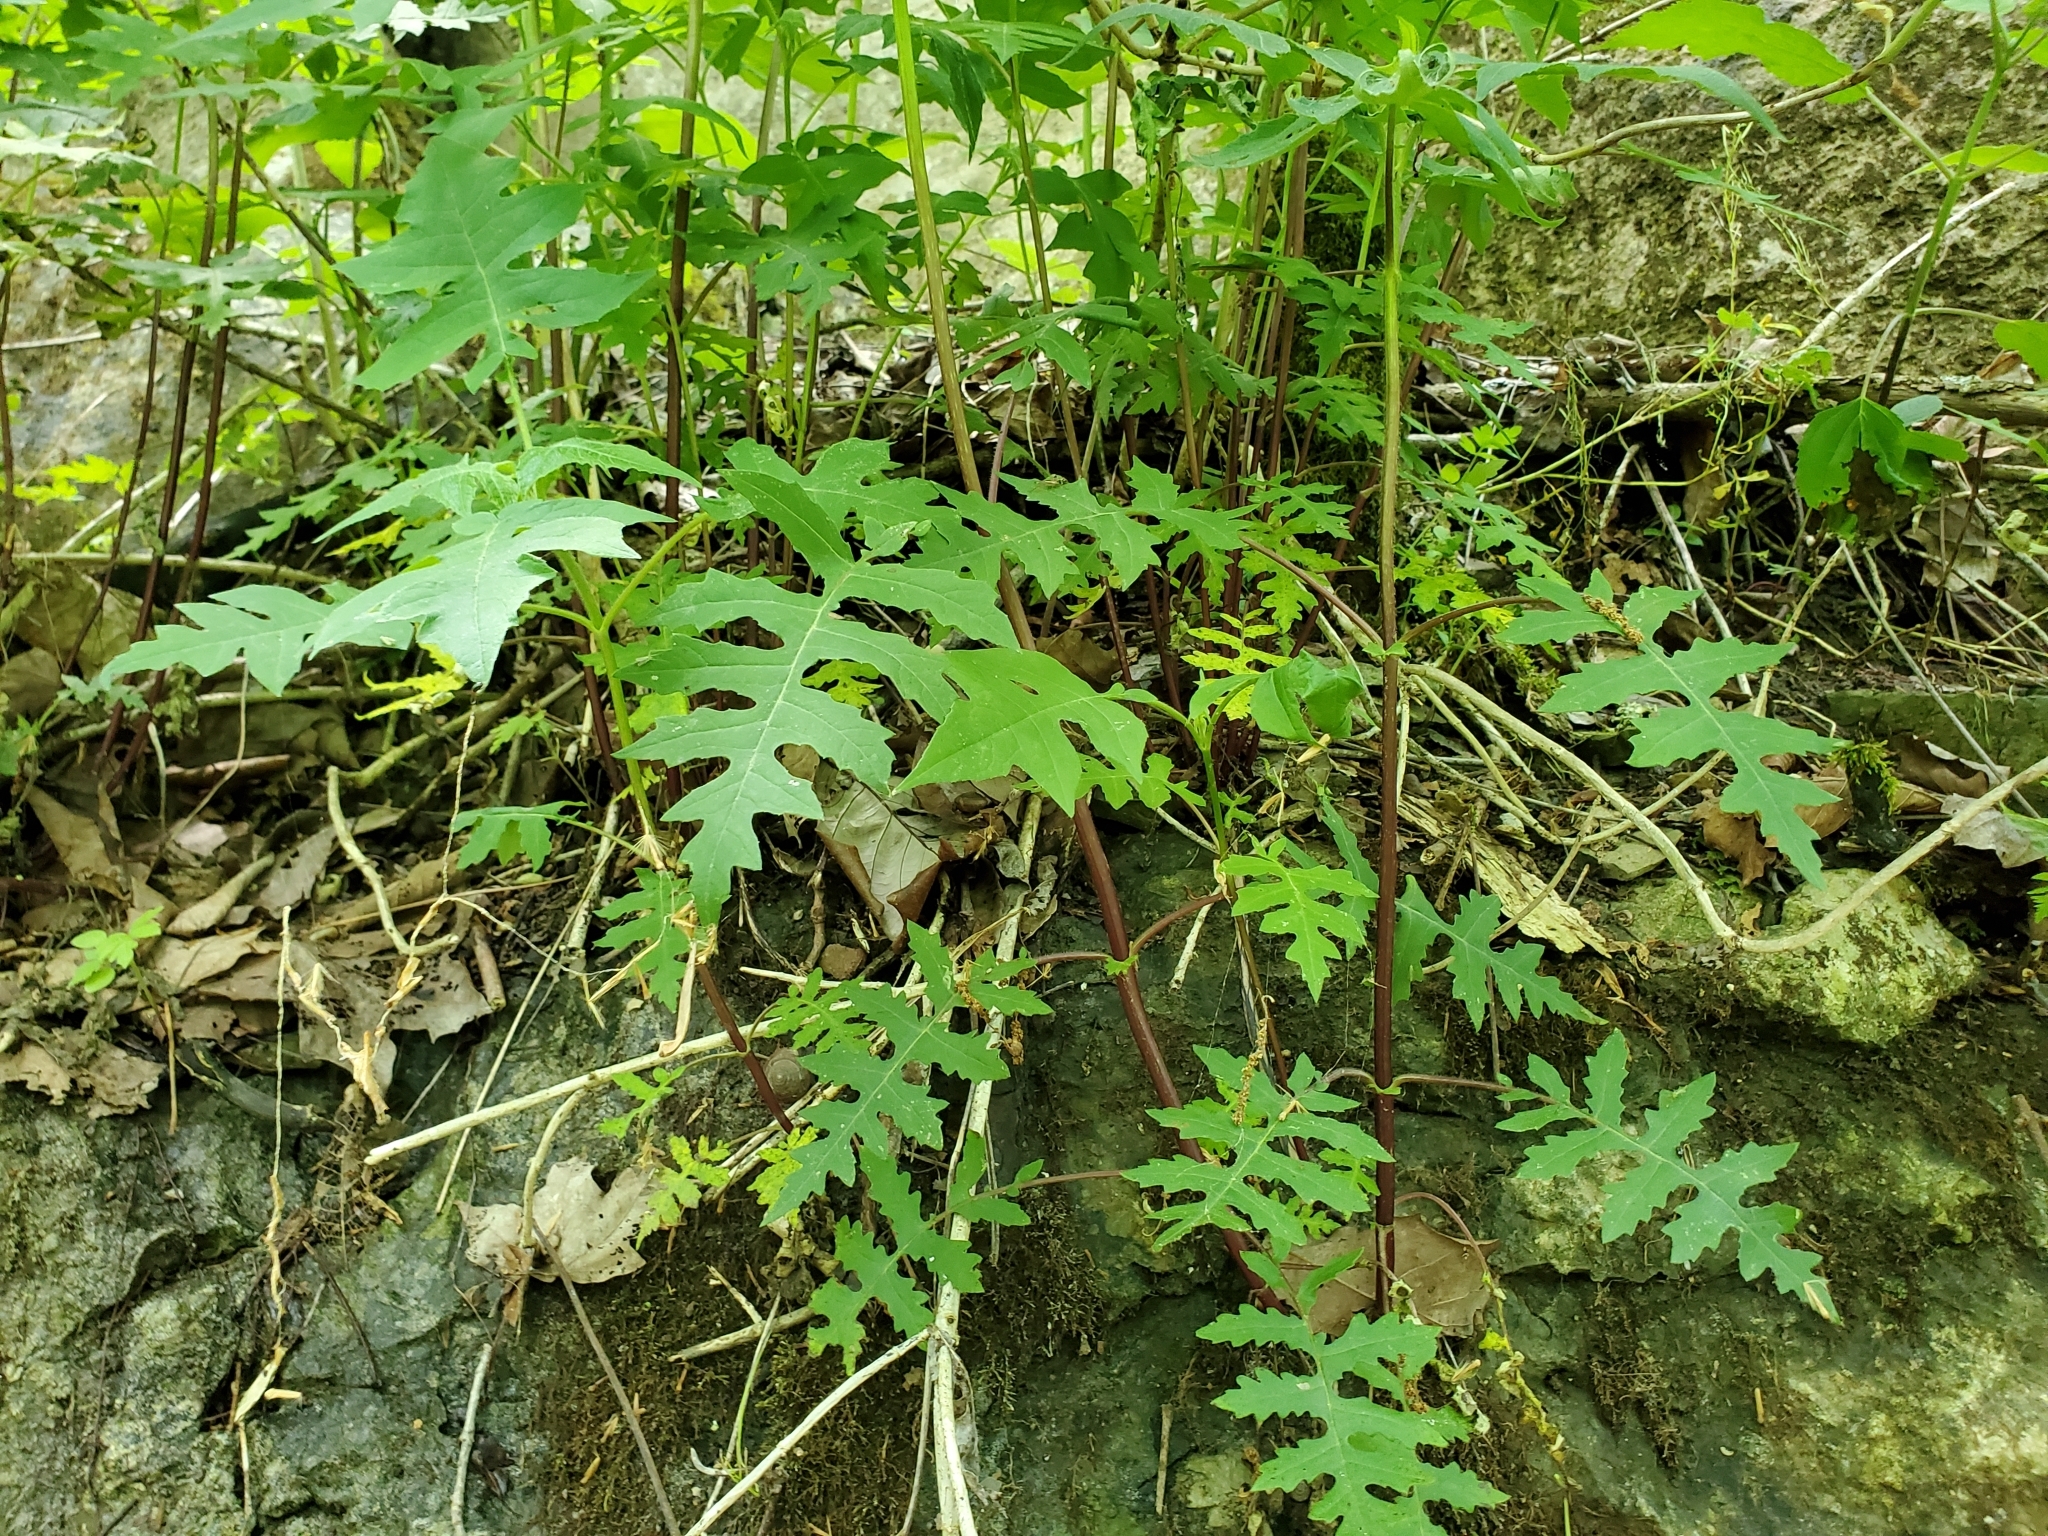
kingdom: Plantae
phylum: Tracheophyta
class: Magnoliopsida
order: Asterales
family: Asteraceae
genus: Polymnia
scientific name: Polymnia canadensis
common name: Pale-flowered leafcup
